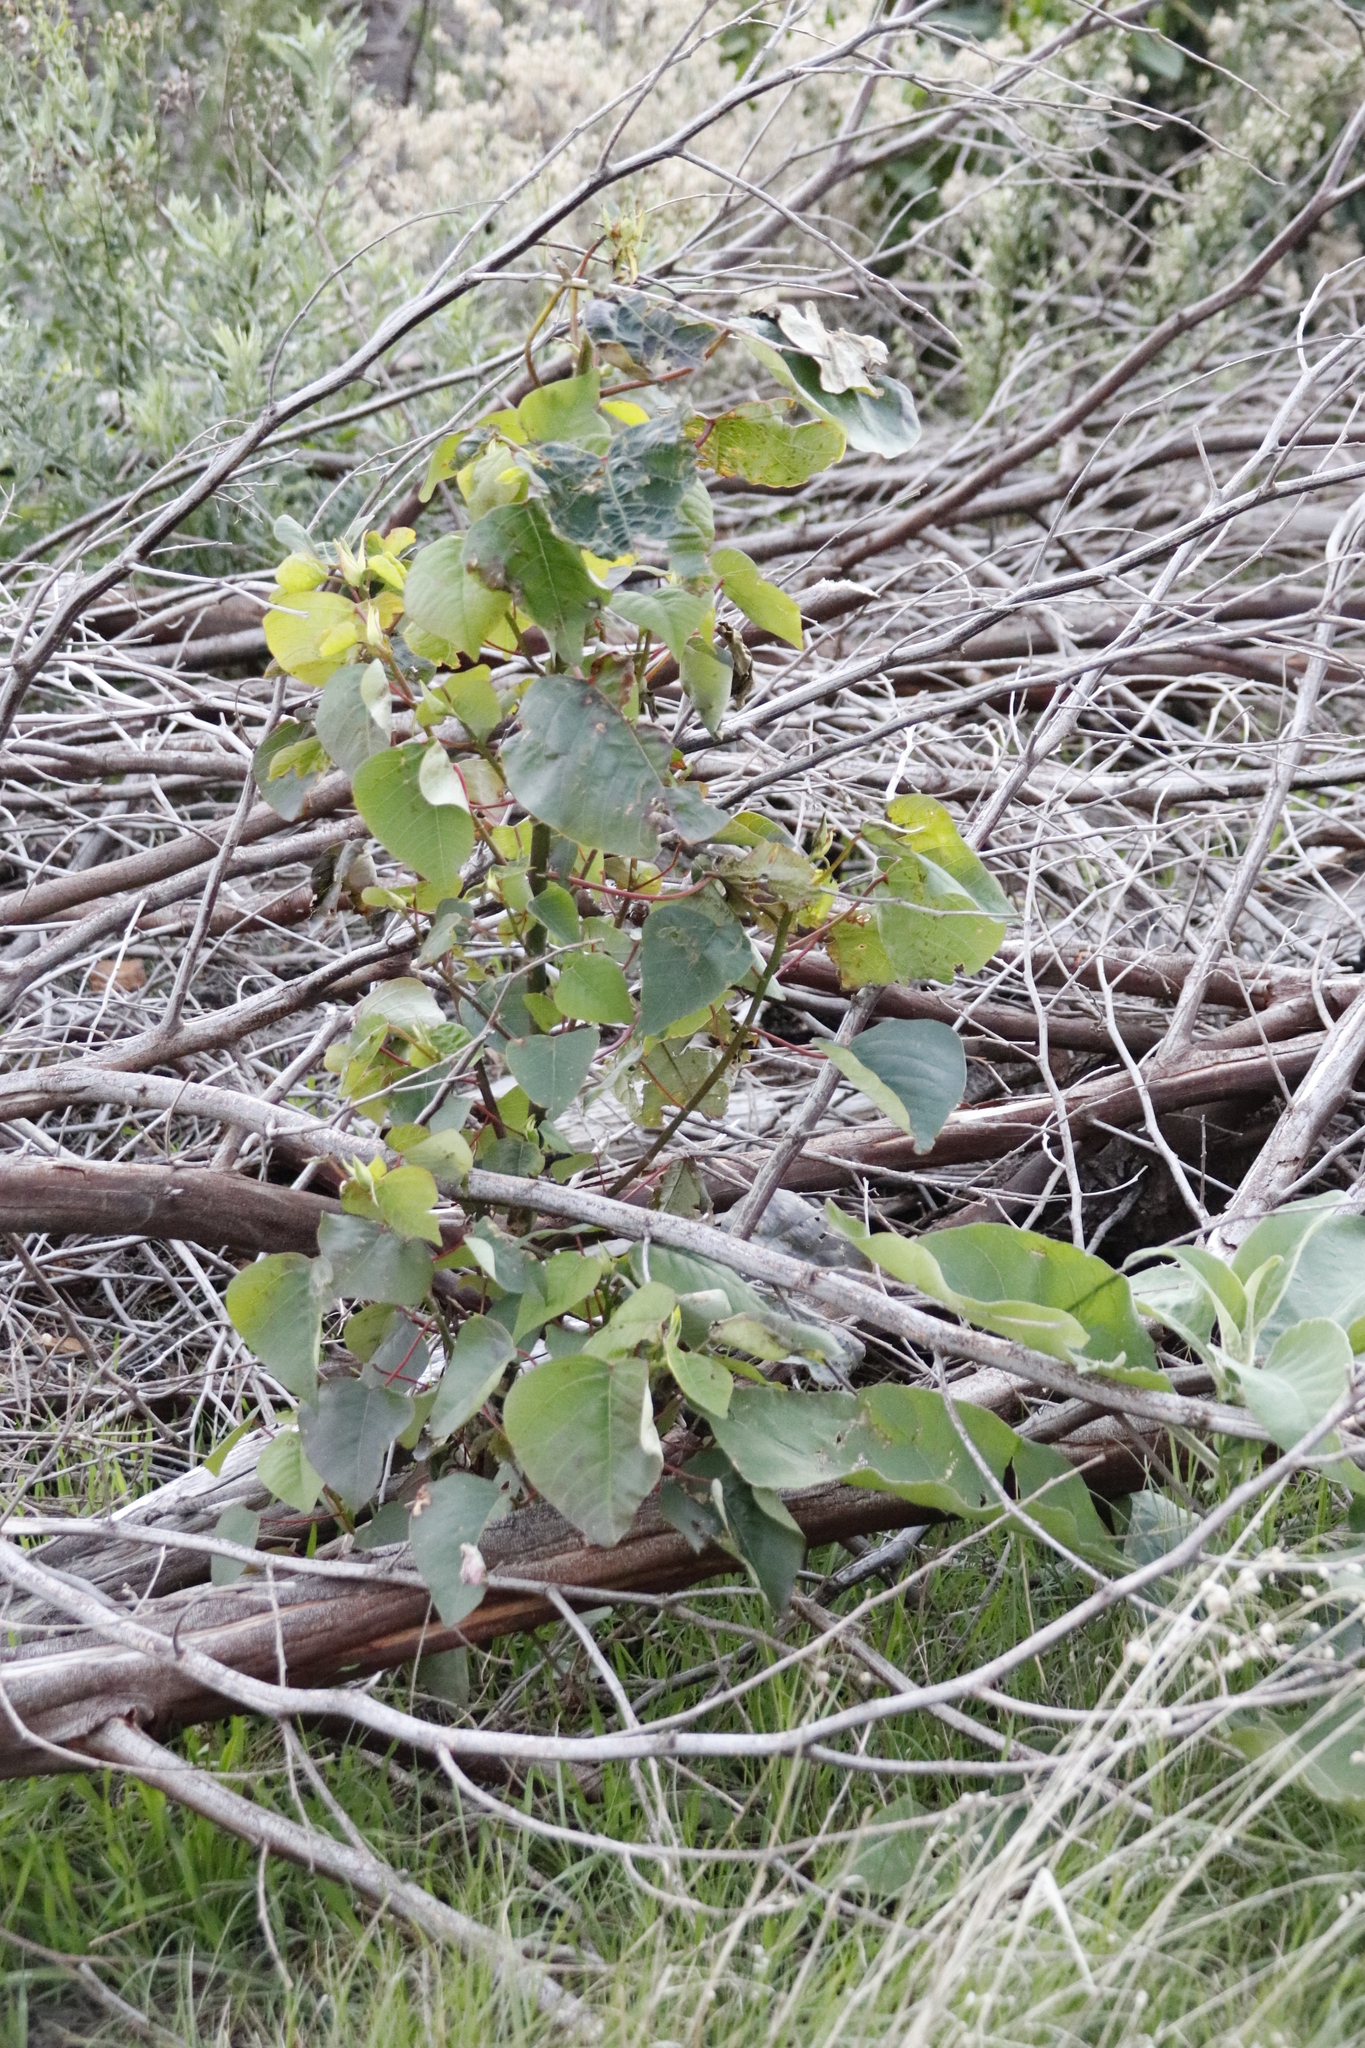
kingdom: Plantae
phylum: Tracheophyta
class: Magnoliopsida
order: Malpighiales
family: Euphorbiaceae
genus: Homalanthus
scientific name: Homalanthus populifolius
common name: Queensland poplar
